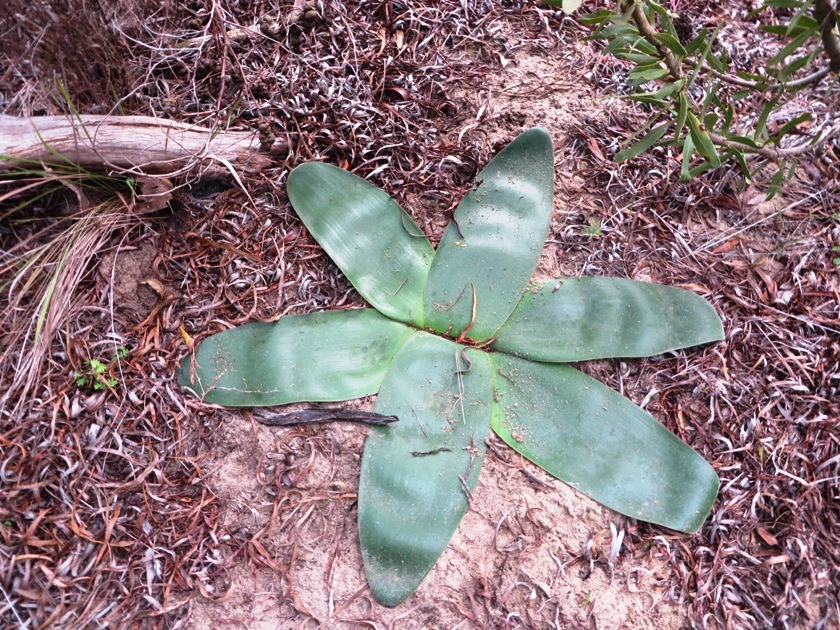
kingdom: Plantae
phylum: Tracheophyta
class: Liliopsida
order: Asparagales
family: Amaryllidaceae
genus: Brunsvigia
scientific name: Brunsvigia orientalis
